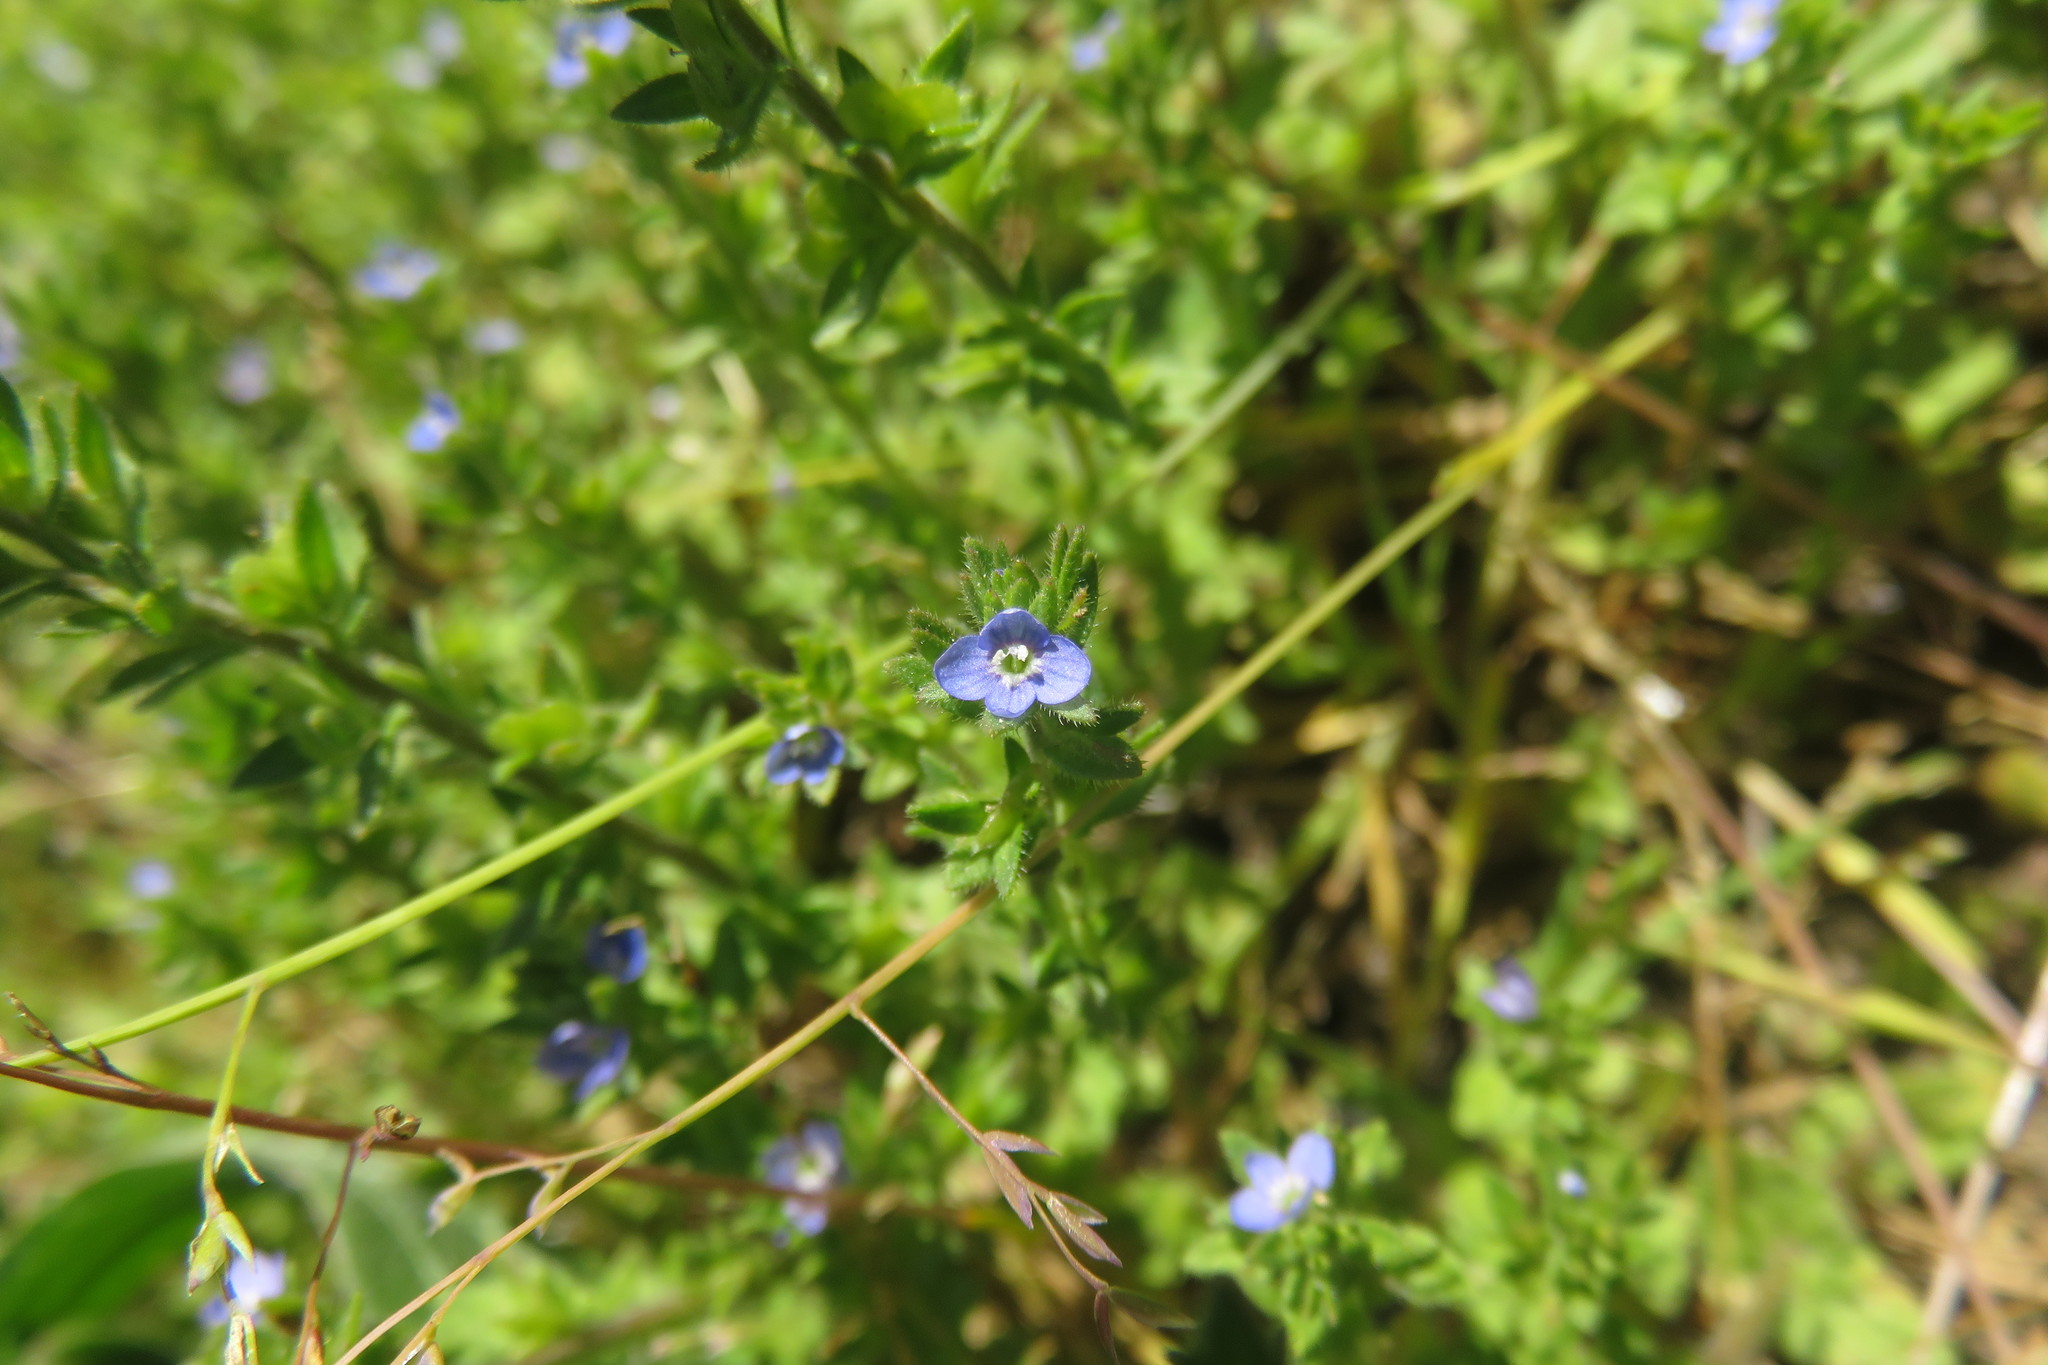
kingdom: Plantae
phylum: Tracheophyta
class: Magnoliopsida
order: Lamiales
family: Plantaginaceae
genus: Veronica
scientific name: Veronica arvensis
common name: Corn speedwell
